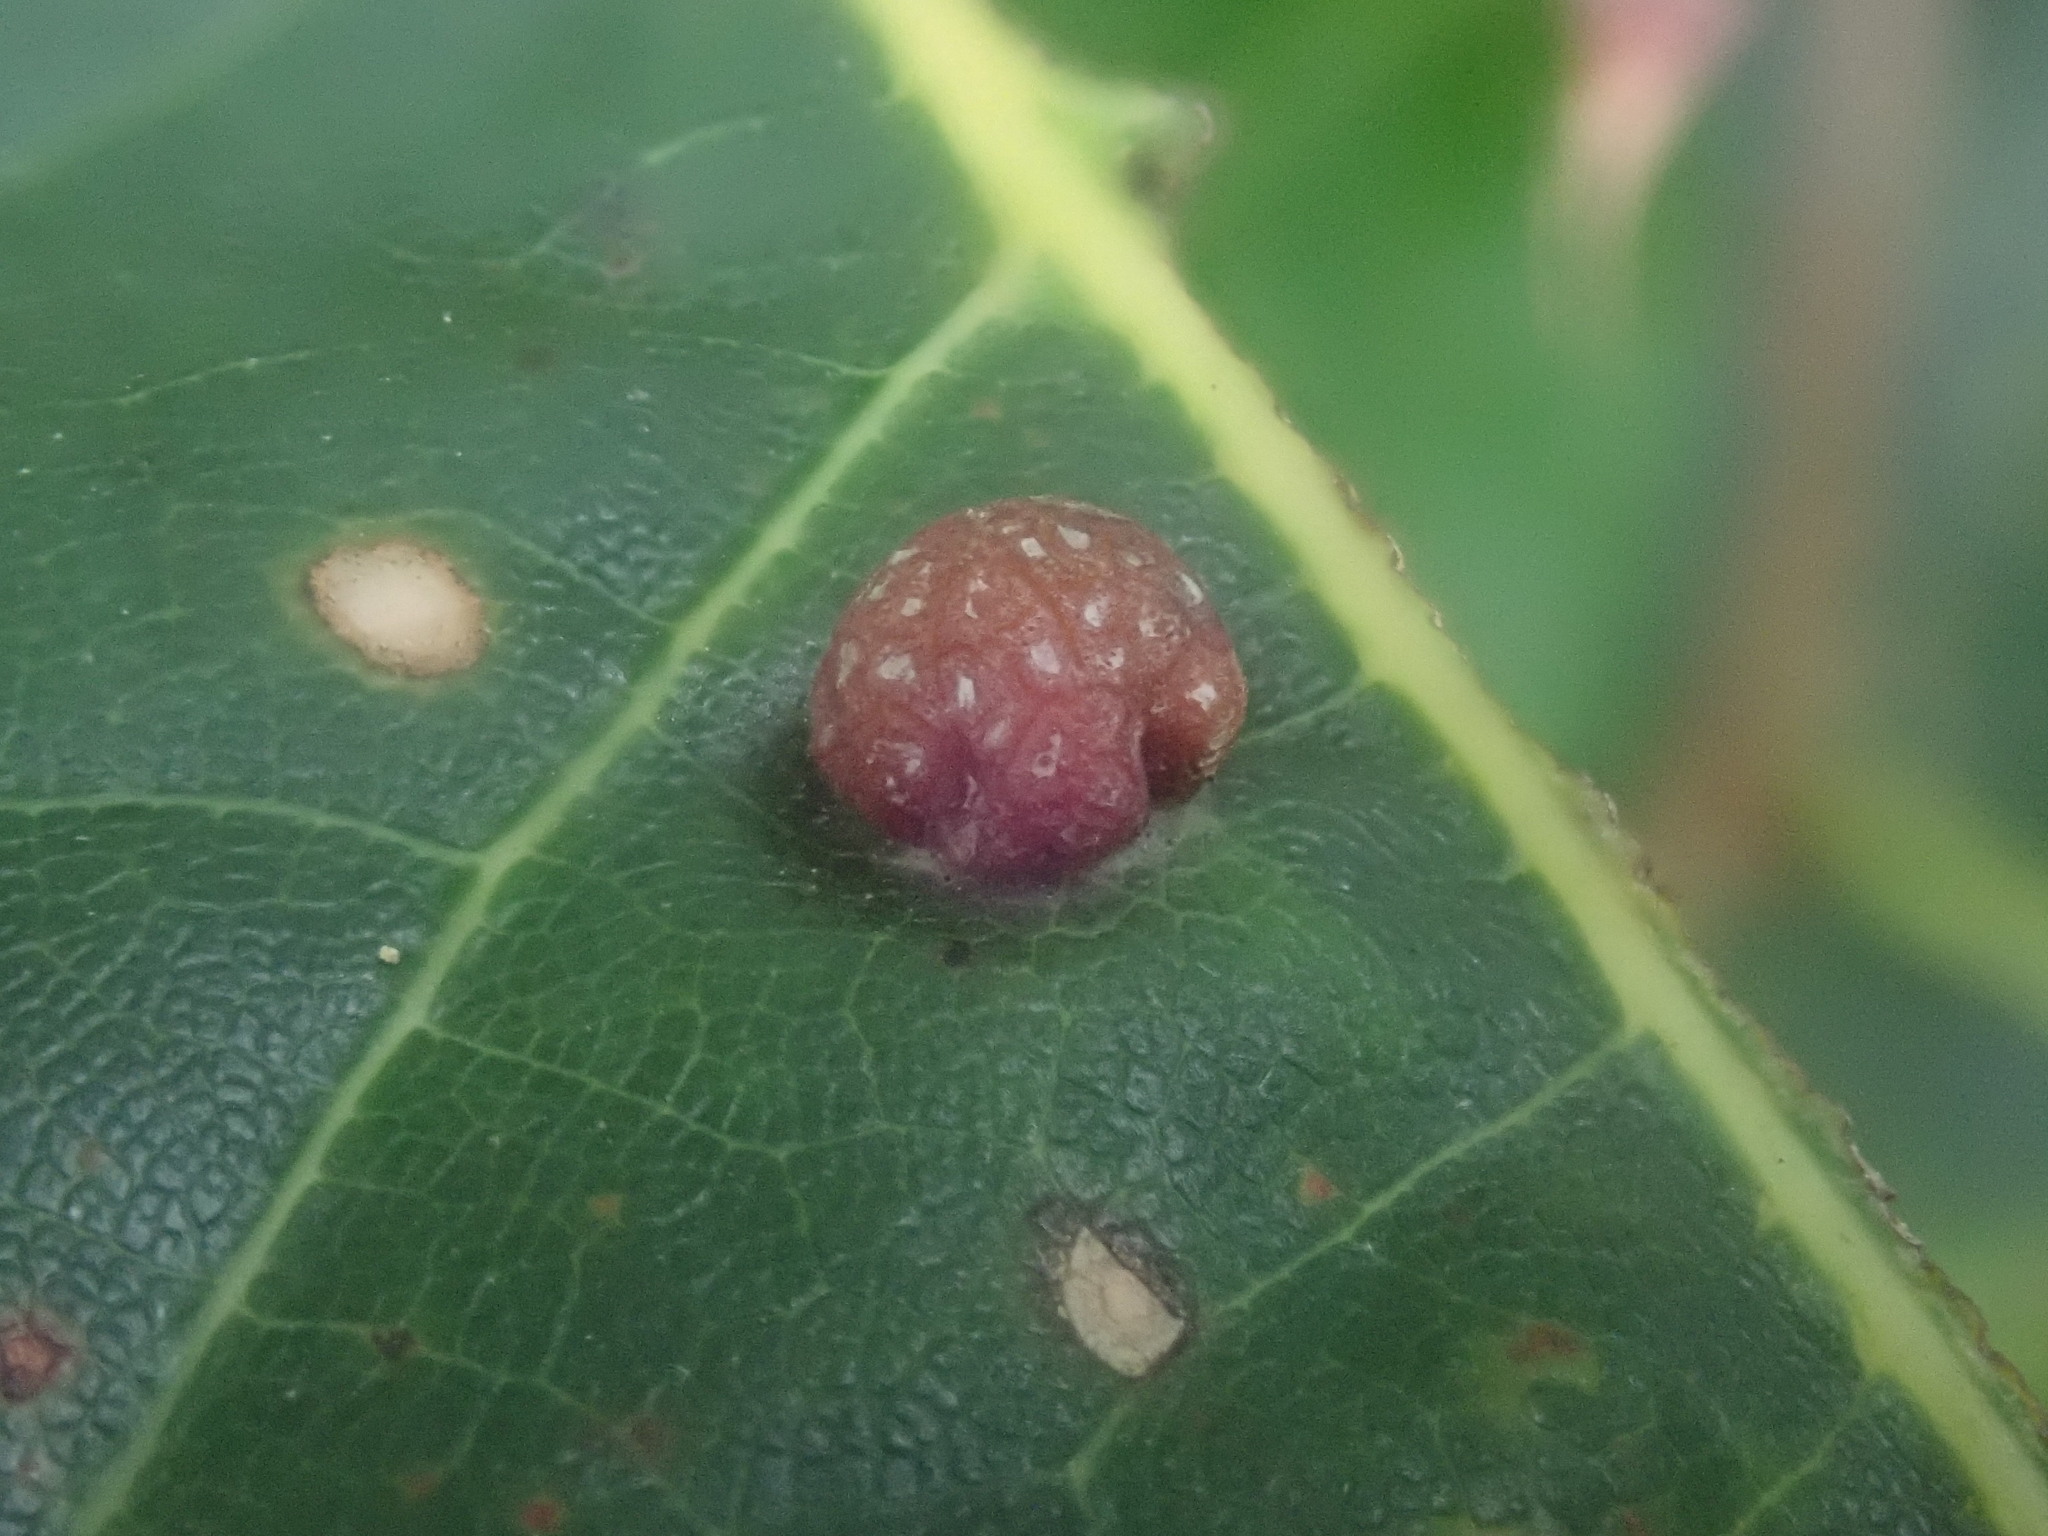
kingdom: Animalia
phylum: Arthropoda
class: Insecta
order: Diptera
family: Cecidomyiidae
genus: Polystepha
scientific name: Polystepha pilulae
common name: Oak leaf gall midge
